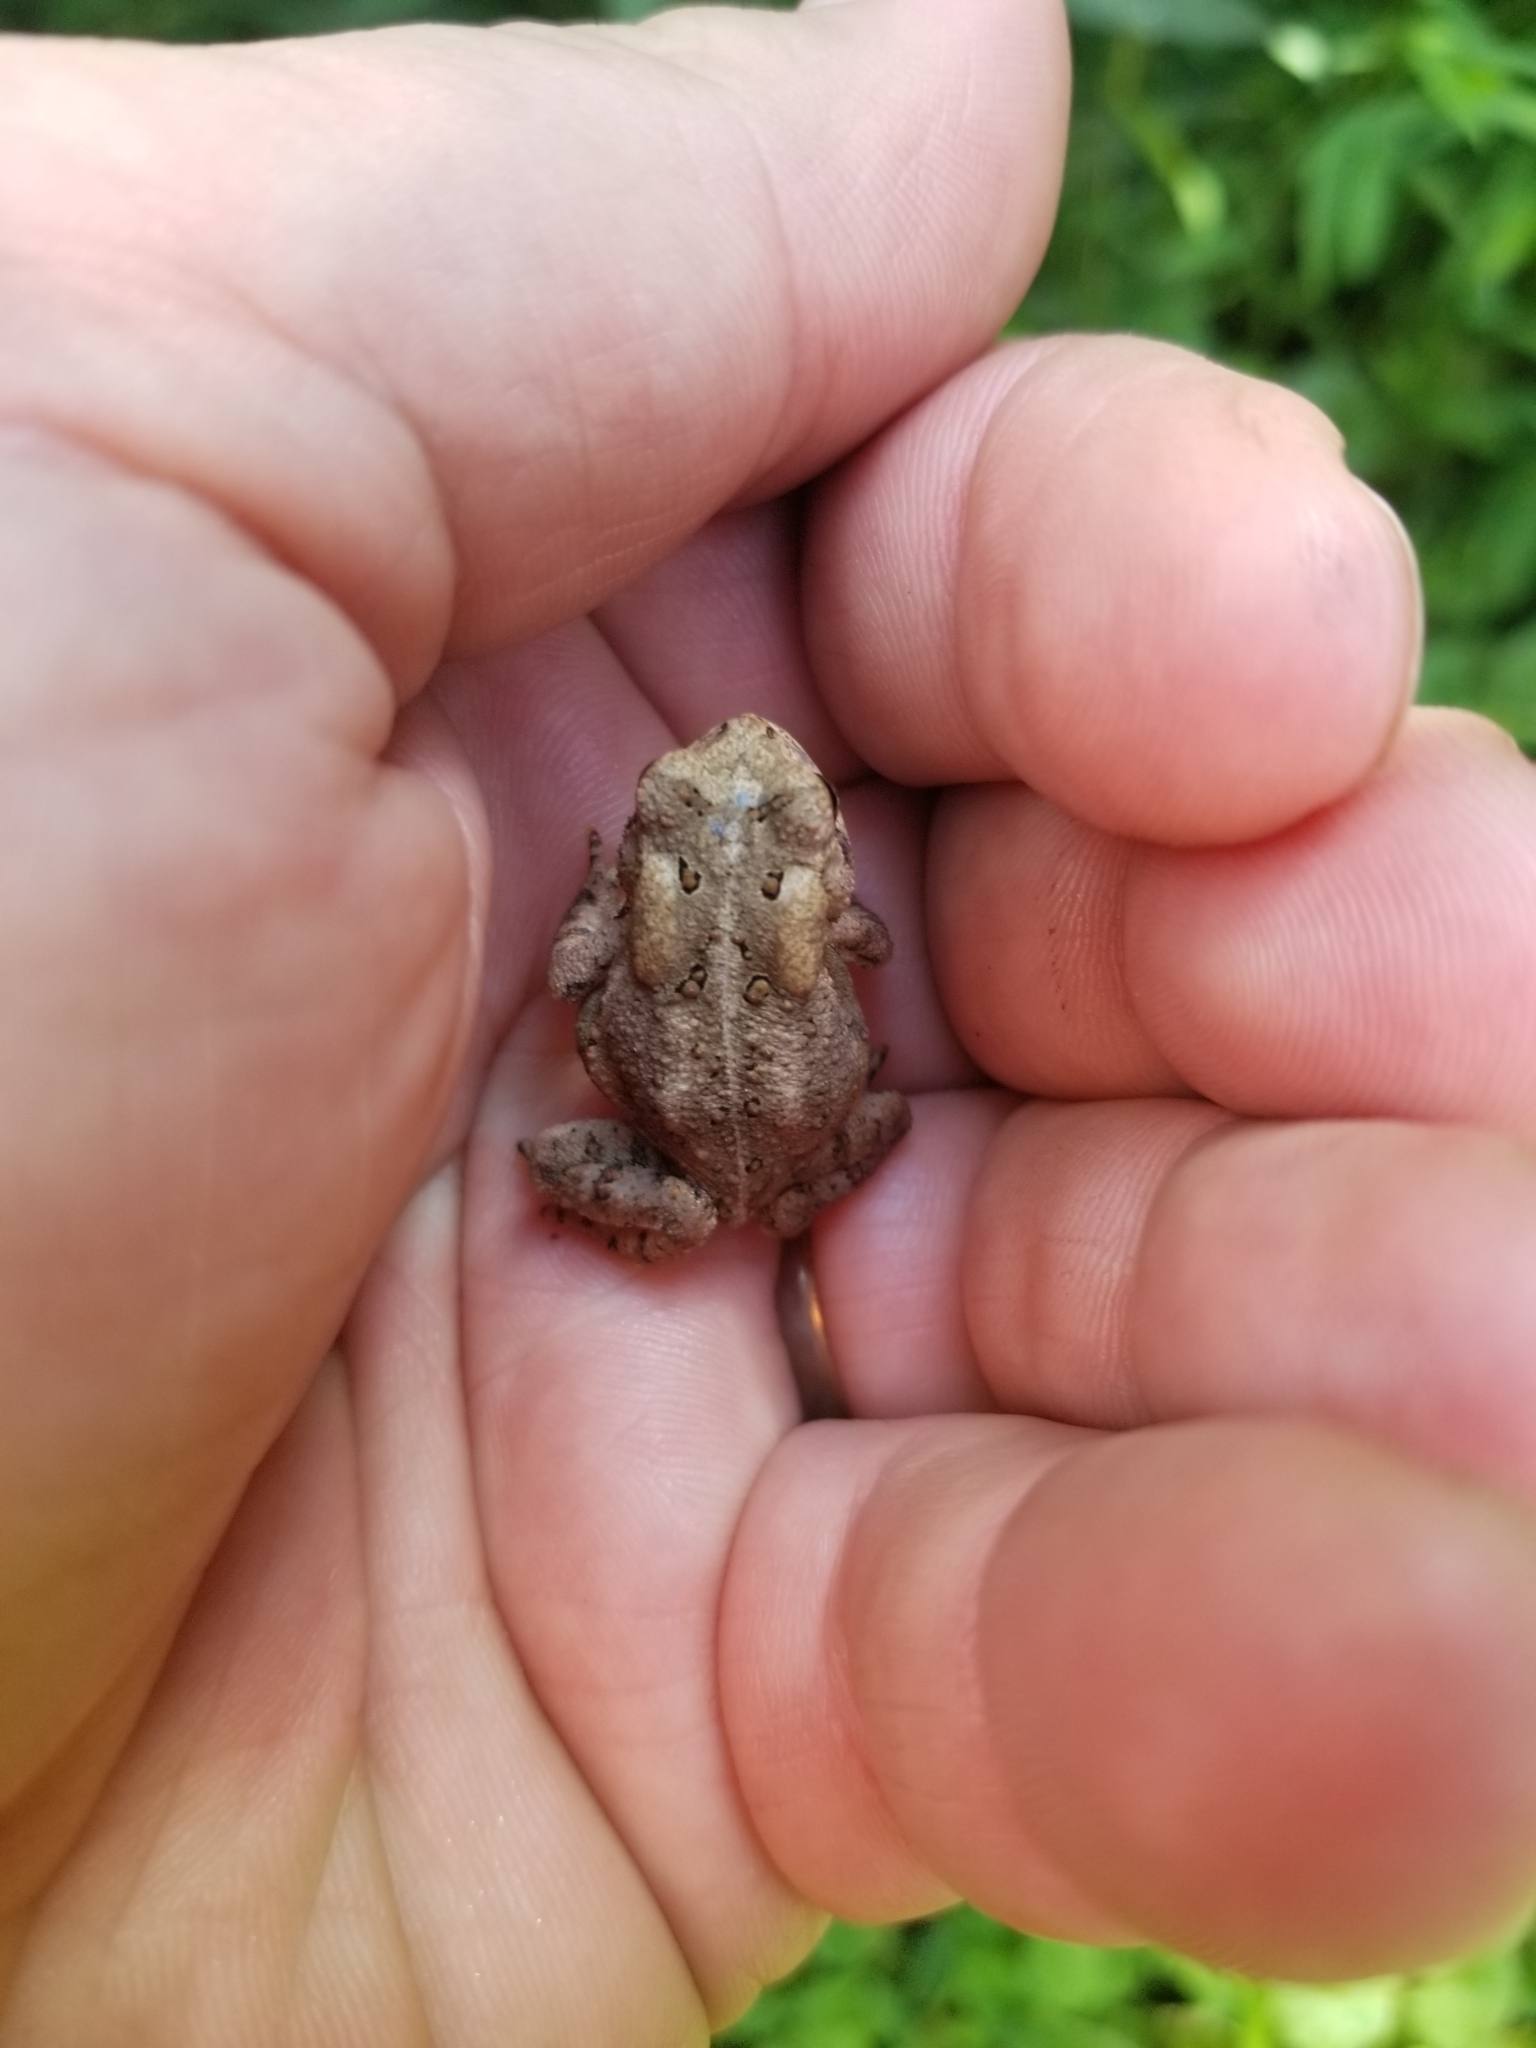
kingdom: Animalia
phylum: Chordata
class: Amphibia
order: Anura
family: Bufonidae
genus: Anaxyrus
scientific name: Anaxyrus americanus
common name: American toad
